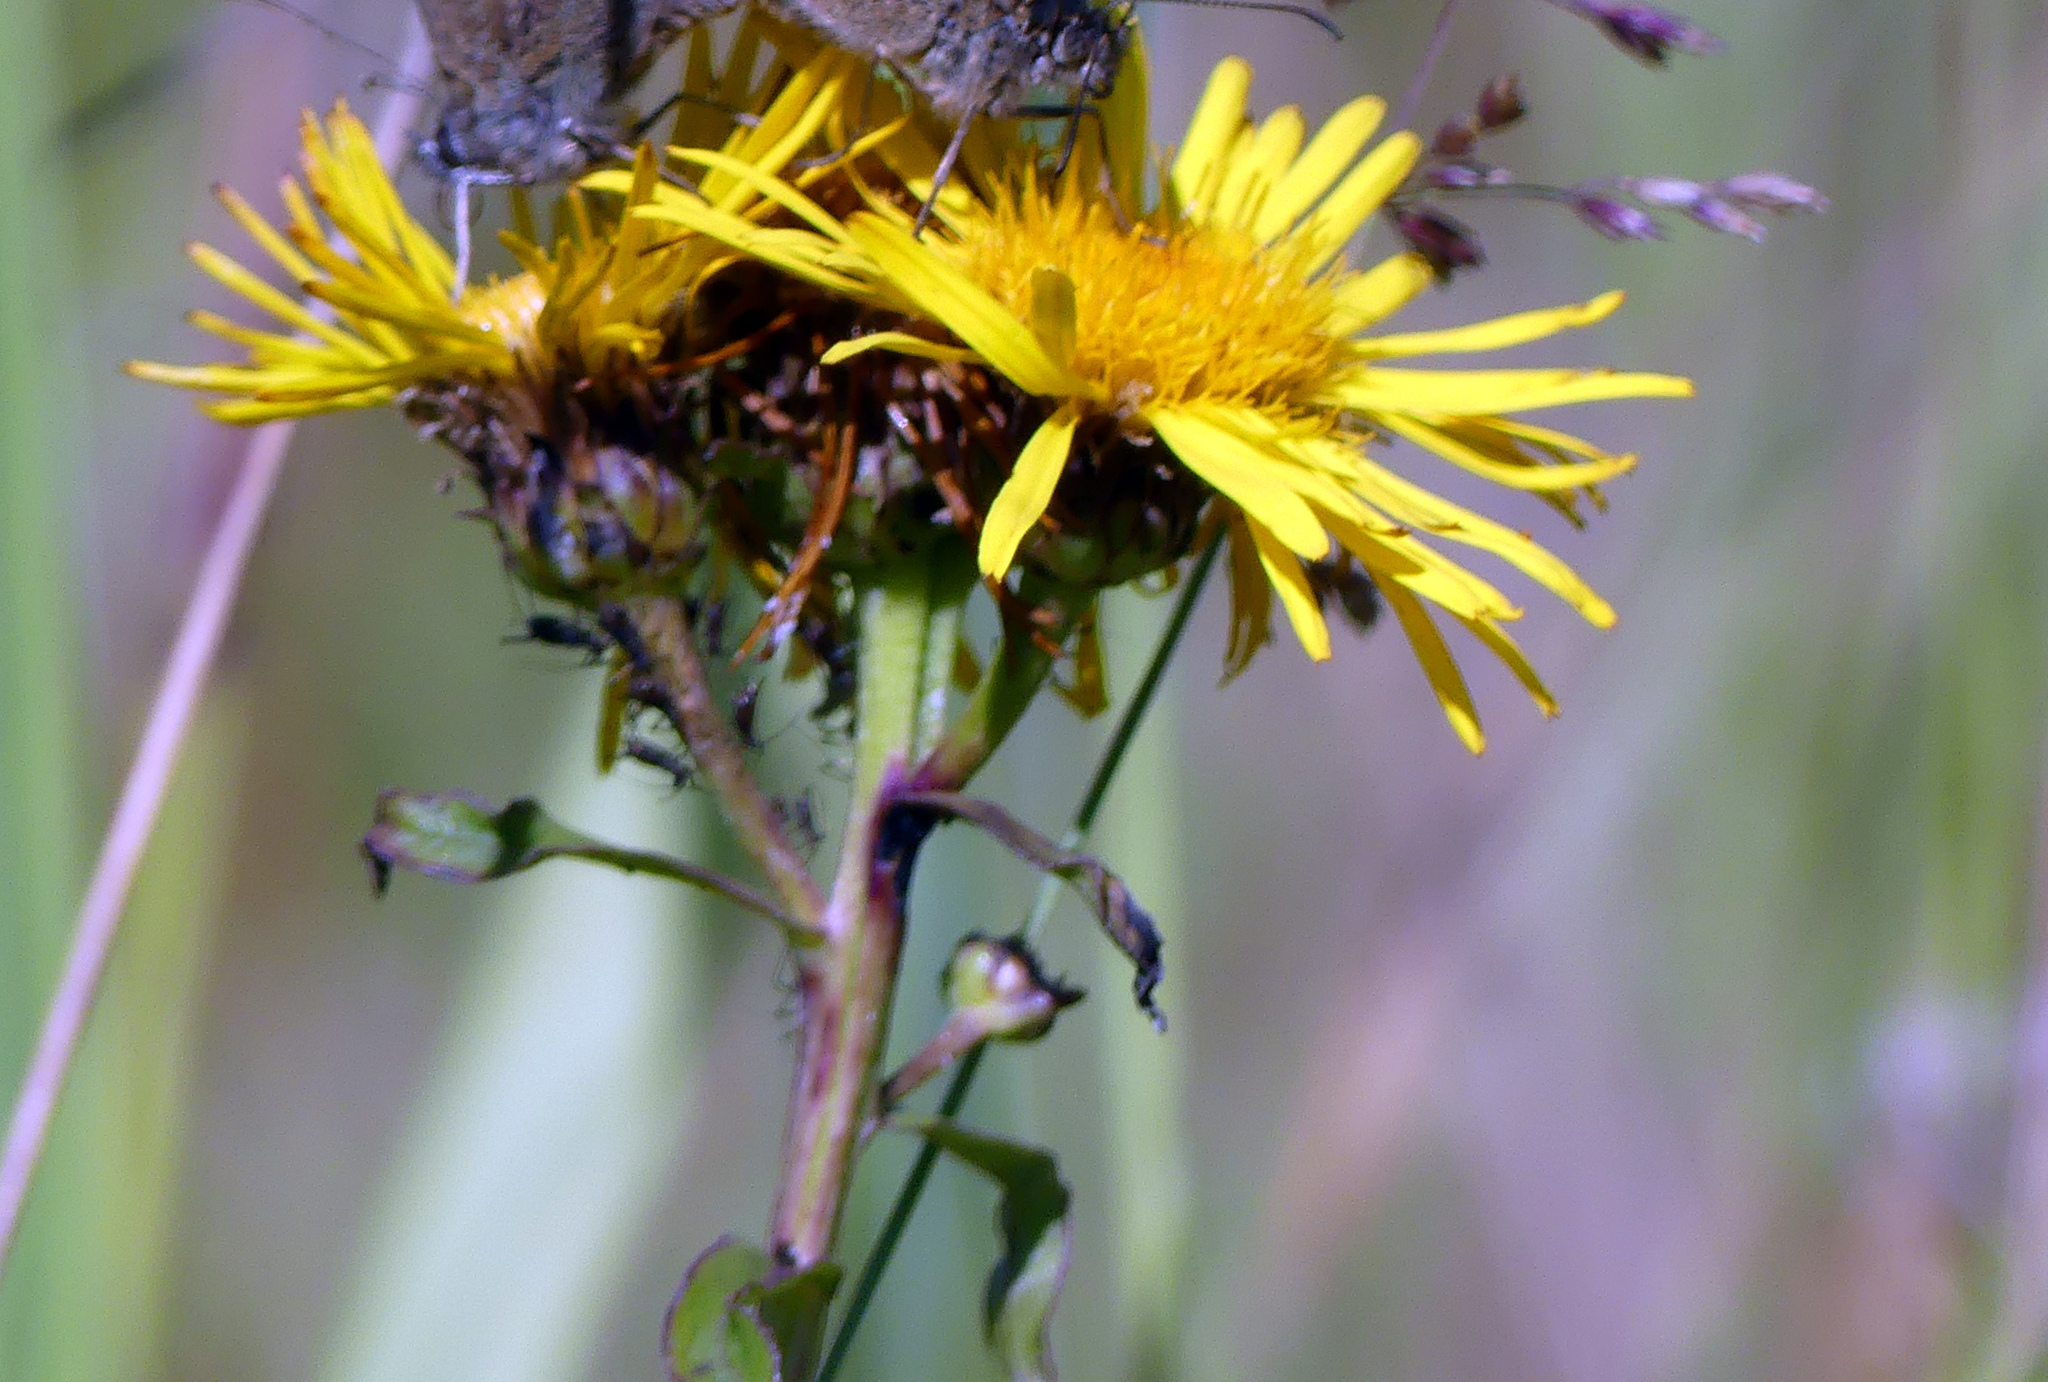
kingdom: Plantae
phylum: Tracheophyta
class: Magnoliopsida
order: Asterales
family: Asteraceae
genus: Pentanema
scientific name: Pentanema salicinum
